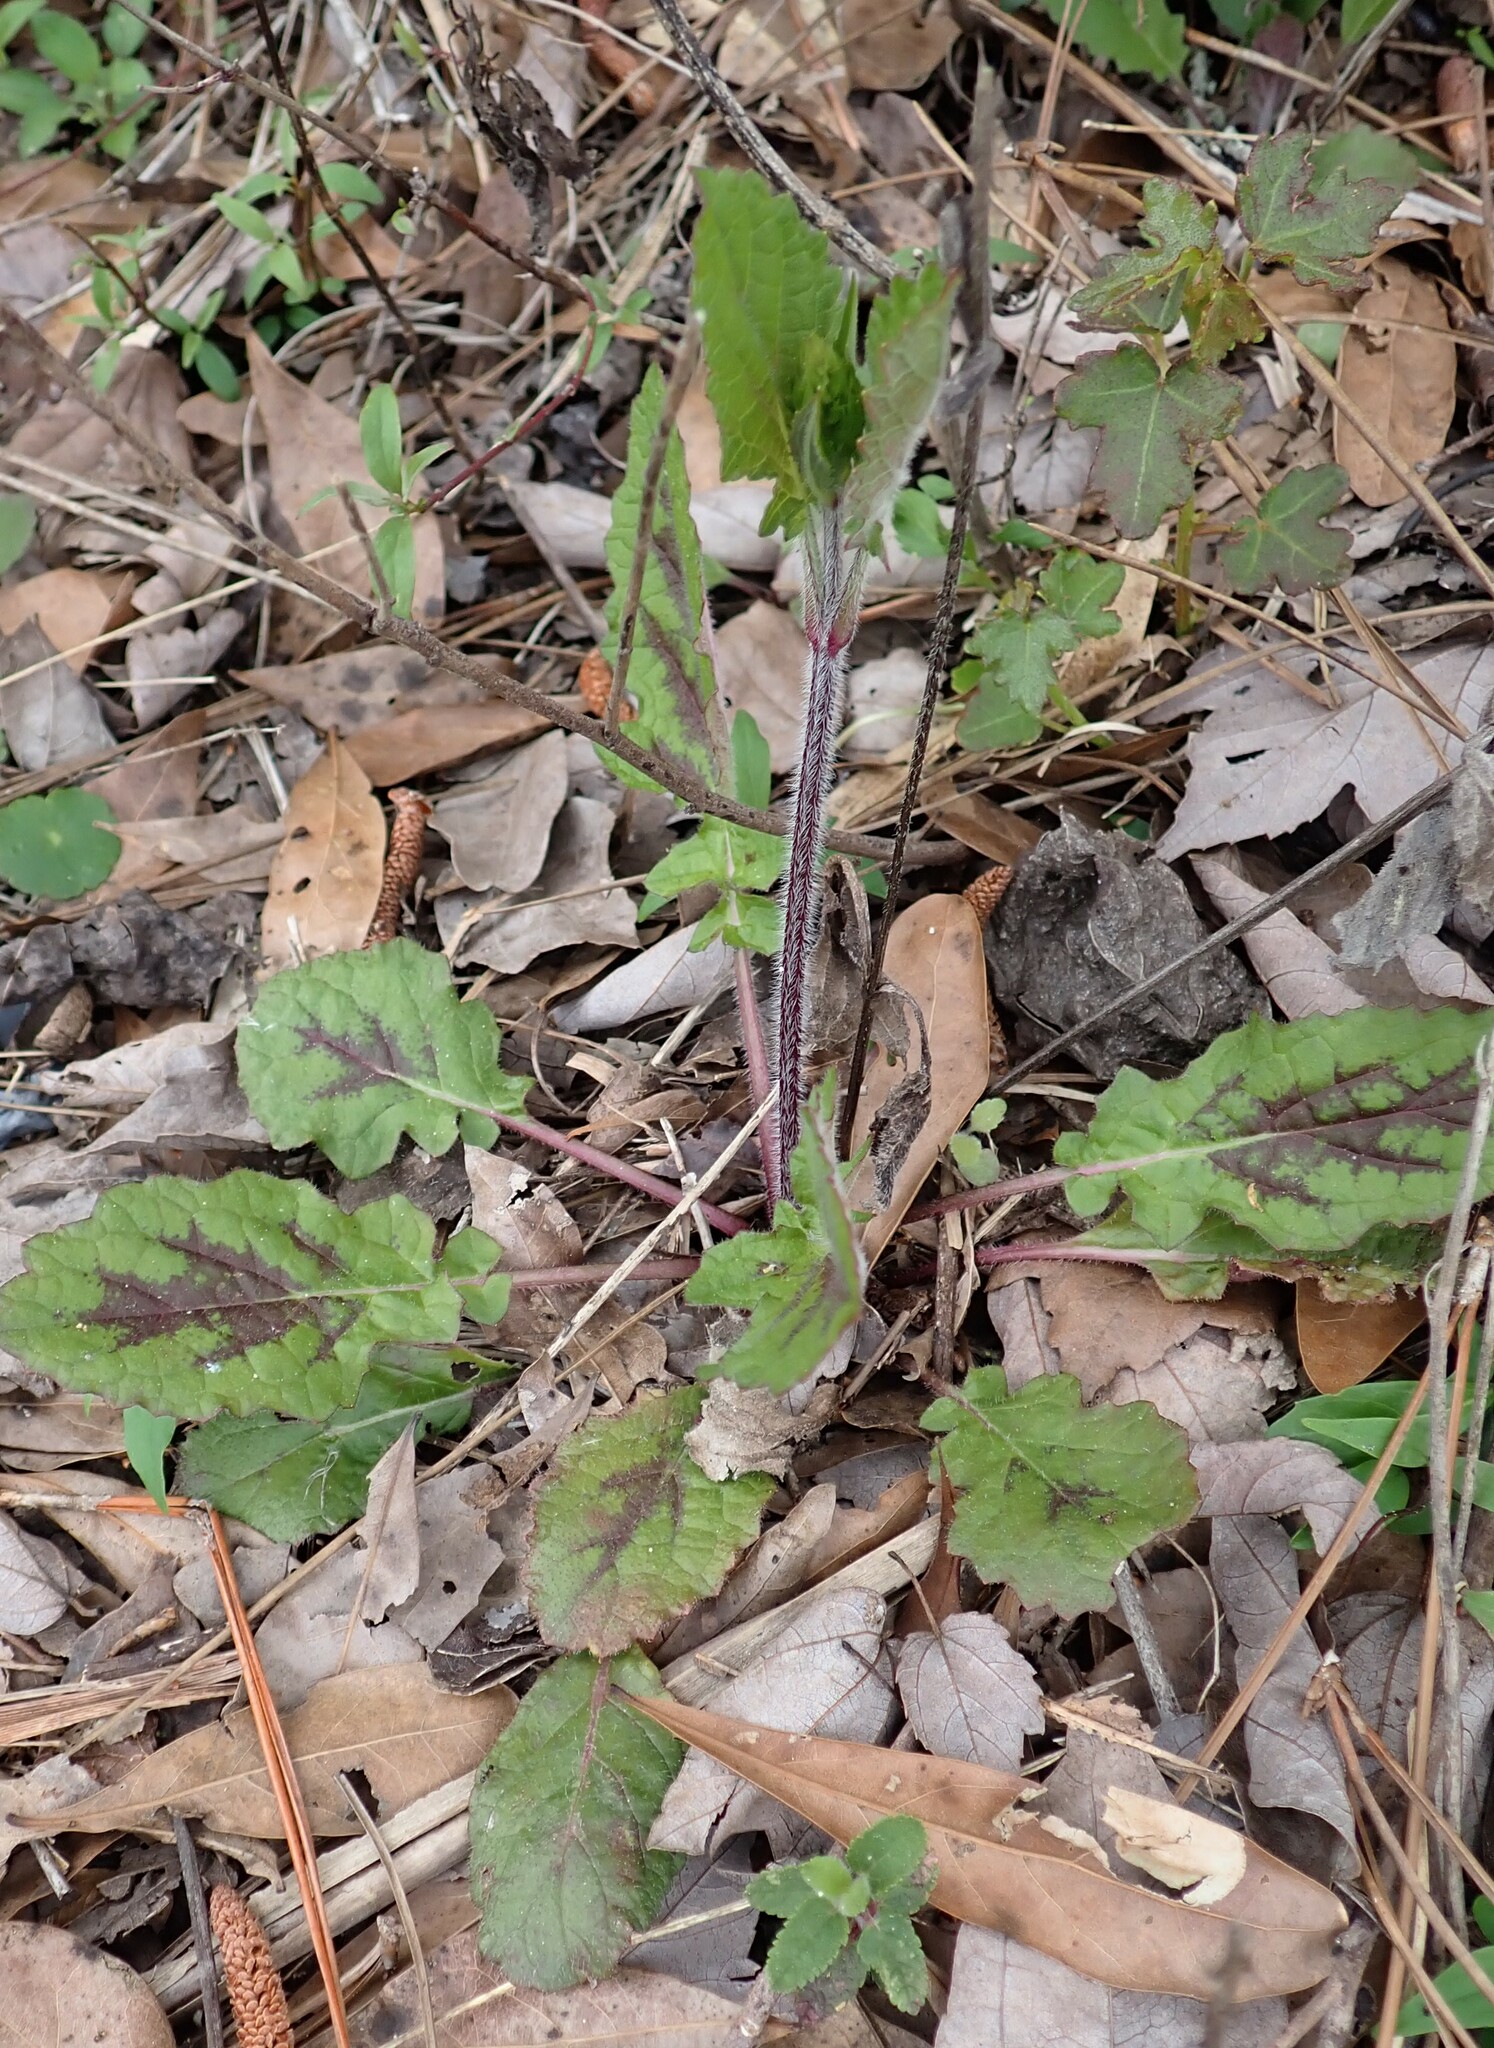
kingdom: Plantae
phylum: Tracheophyta
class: Magnoliopsida
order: Lamiales
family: Lamiaceae
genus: Salvia
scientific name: Salvia lyrata
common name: Cancerweed
